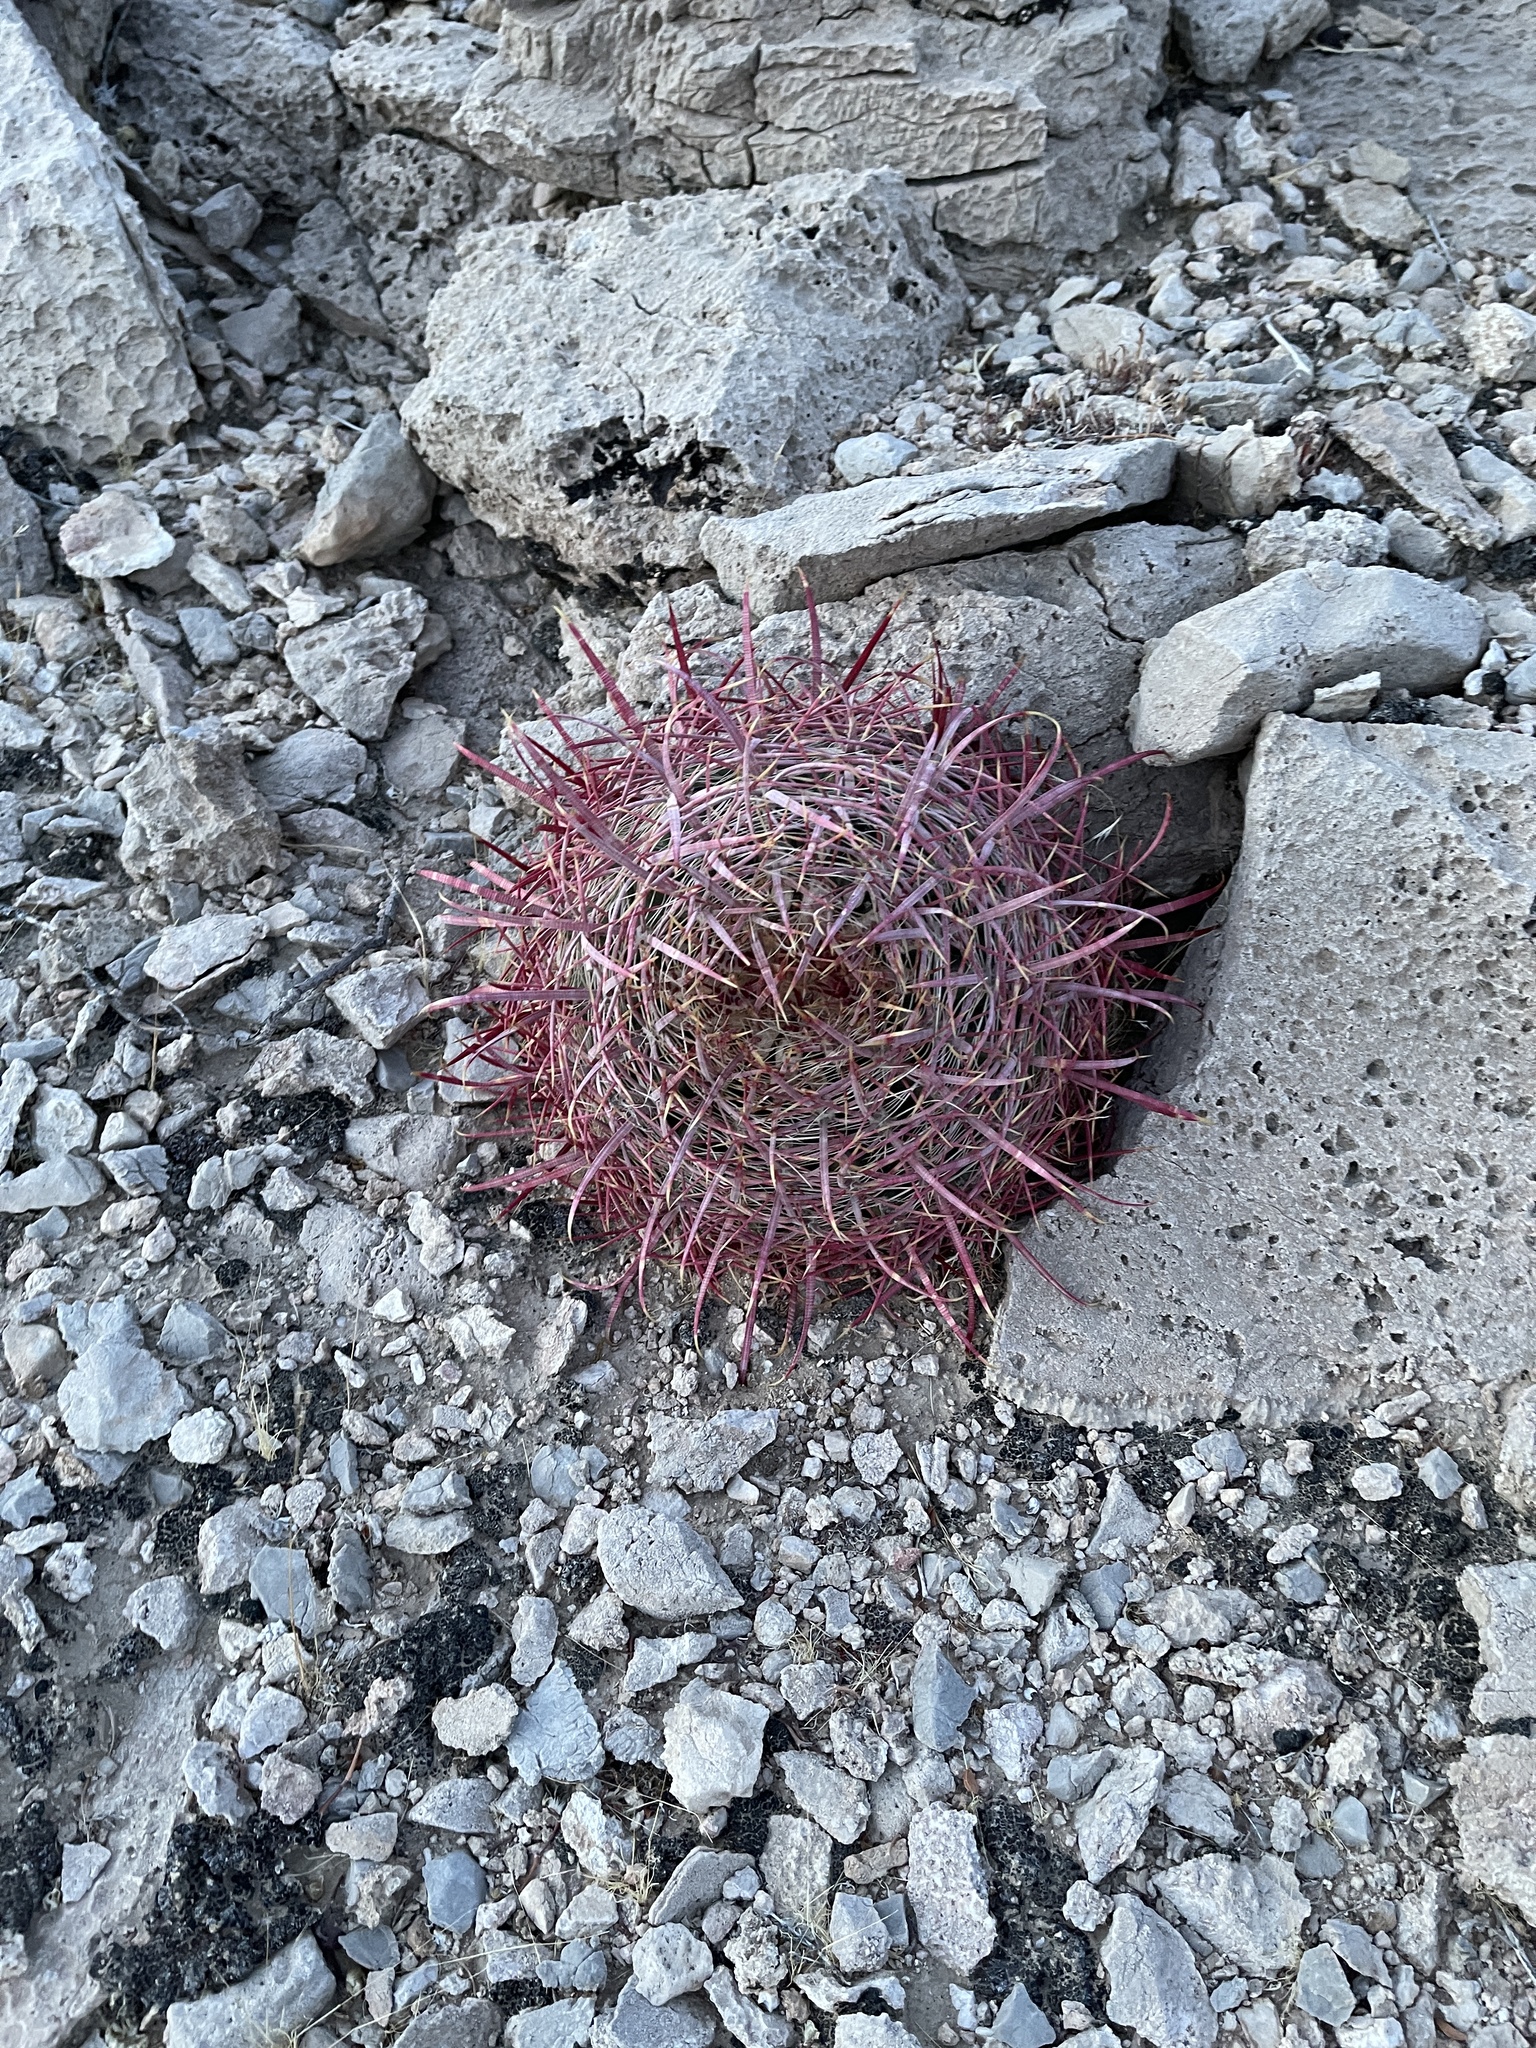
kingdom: Plantae
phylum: Tracheophyta
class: Magnoliopsida
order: Caryophyllales
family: Cactaceae
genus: Ferocactus
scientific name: Ferocactus cylindraceus
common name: California barrel cactus
